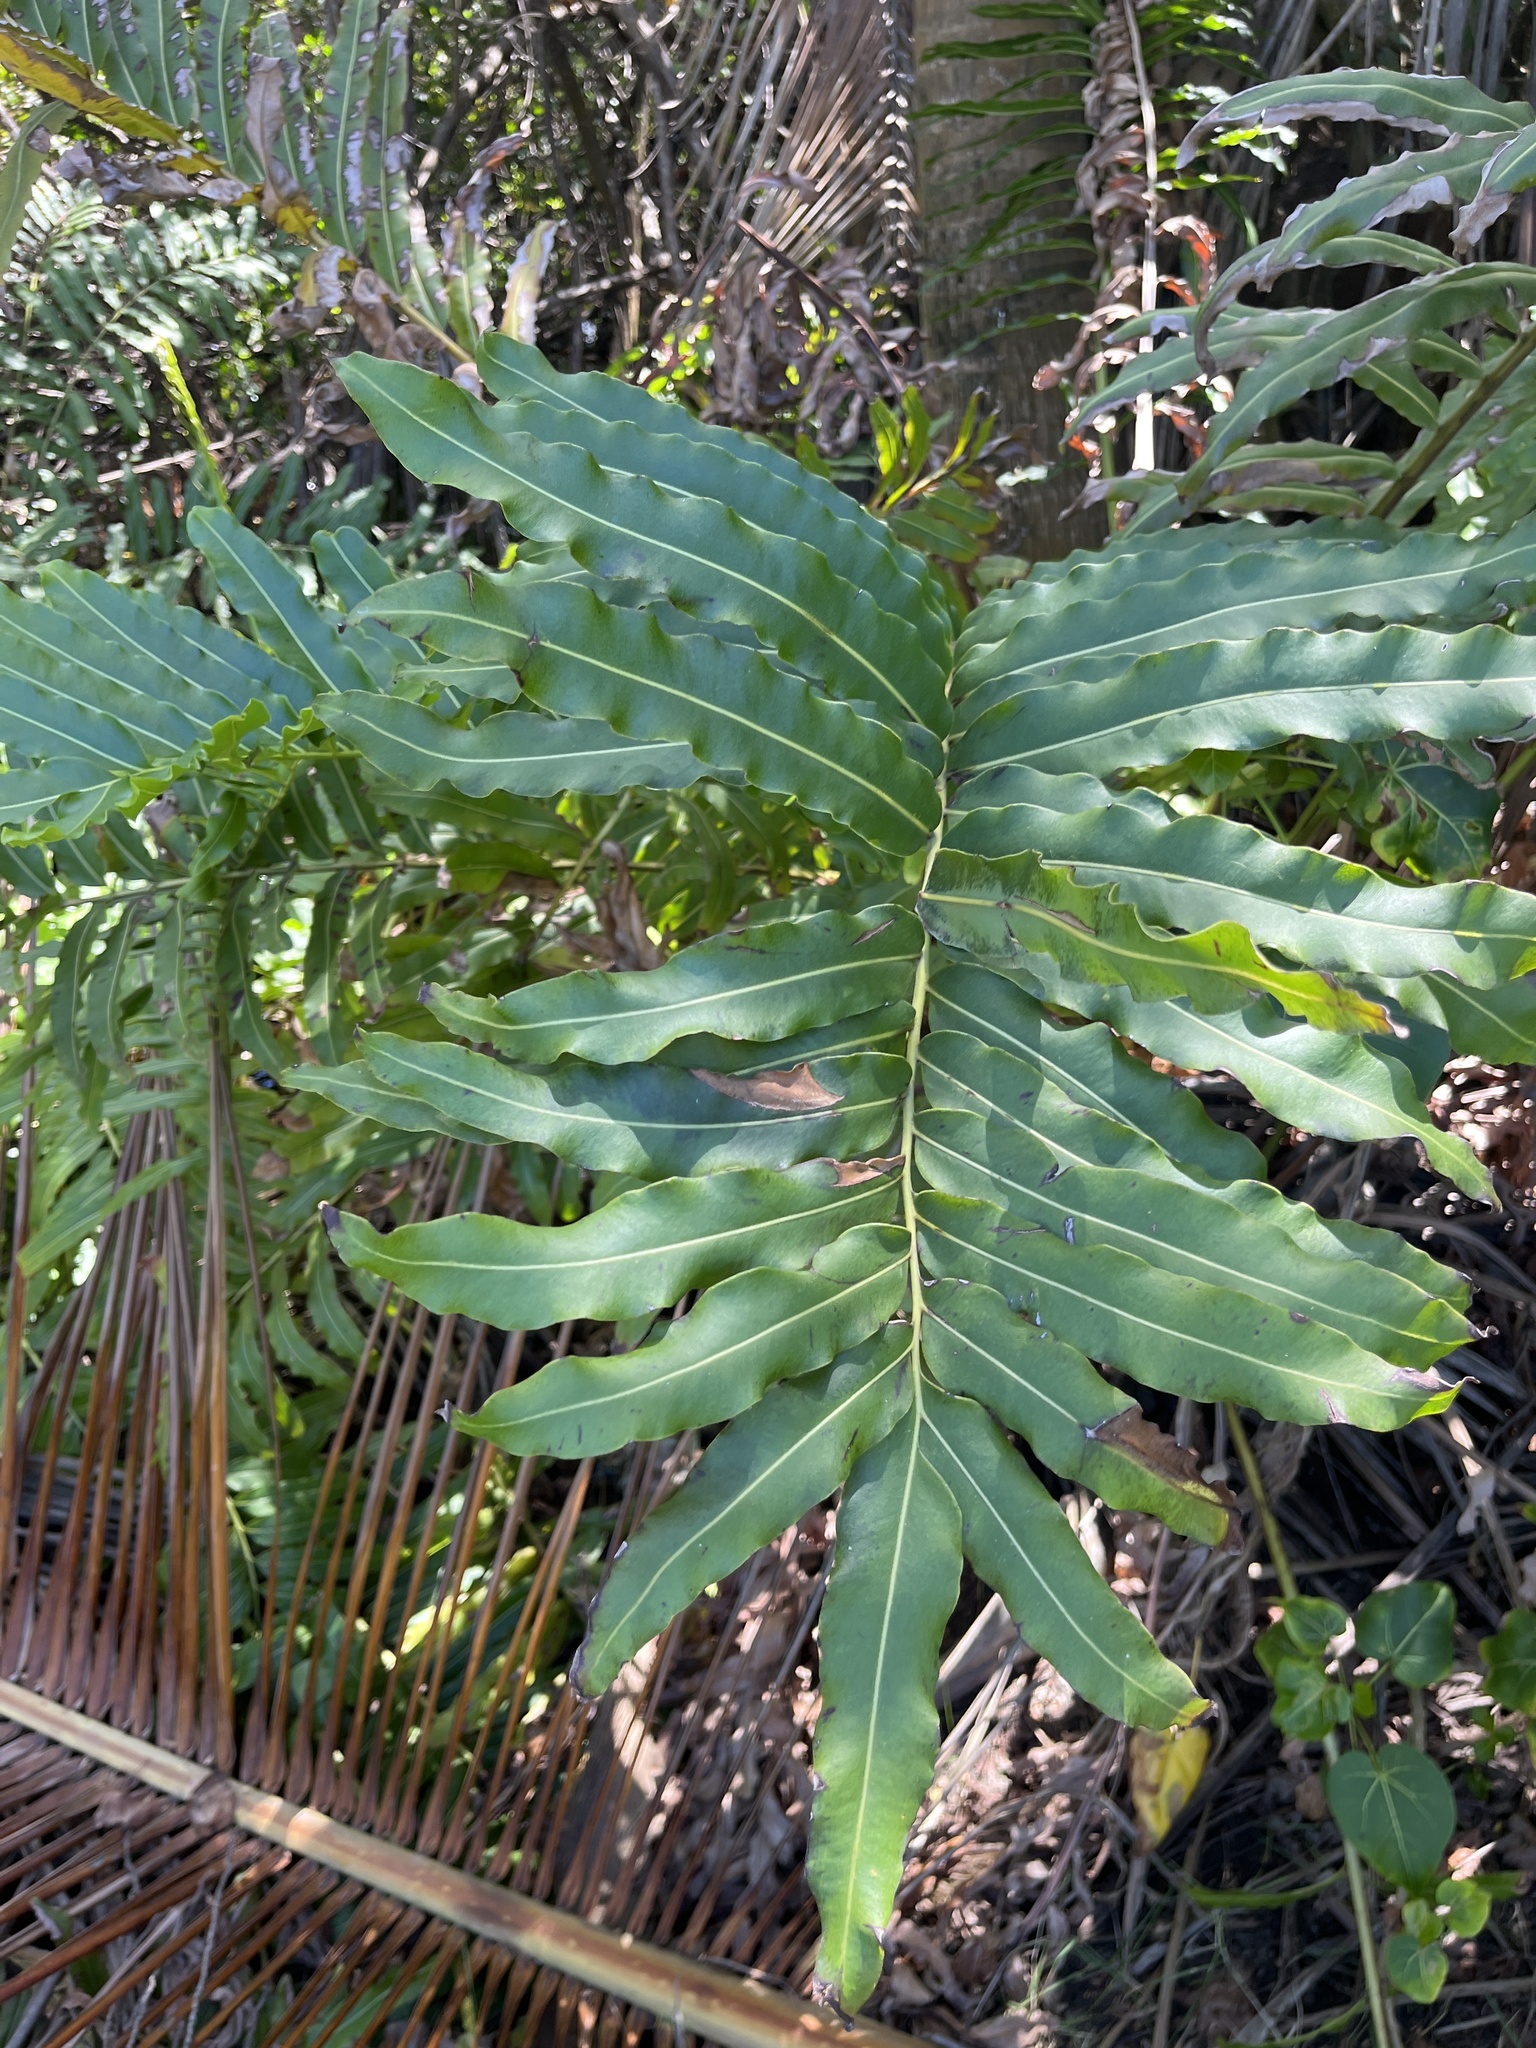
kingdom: Plantae
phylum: Tracheophyta
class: Polypodiopsida
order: Polypodiales
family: Pteridaceae
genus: Acrostichum
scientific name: Acrostichum danaeifolium
